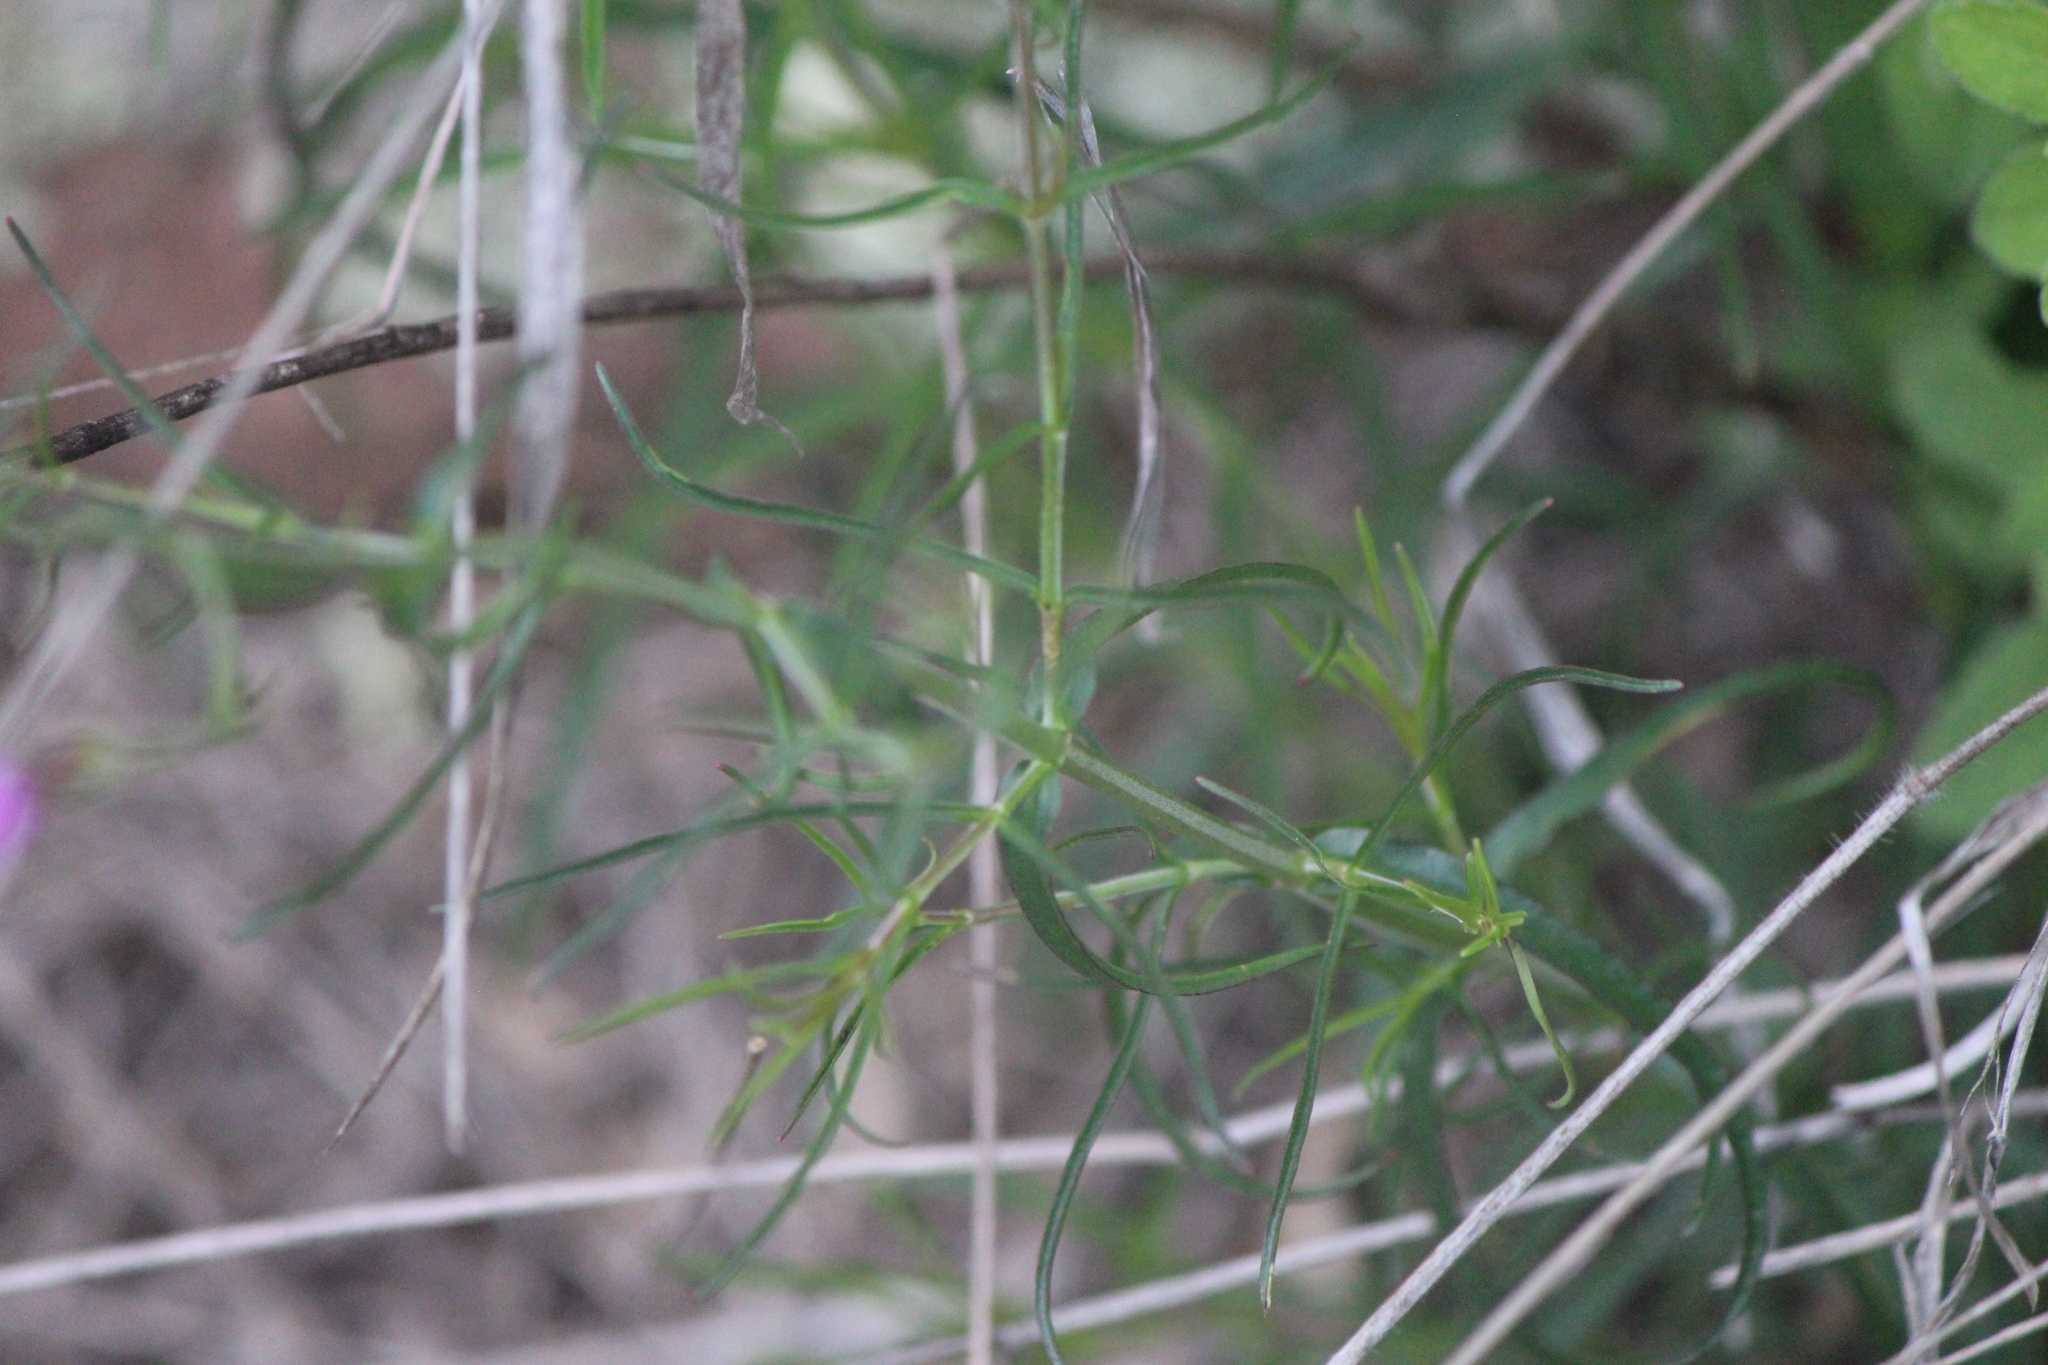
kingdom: Plantae
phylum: Tracheophyta
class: Magnoliopsida
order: Lamiales
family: Plantaginaceae
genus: Penstemon
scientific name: Penstemon amphorellae
